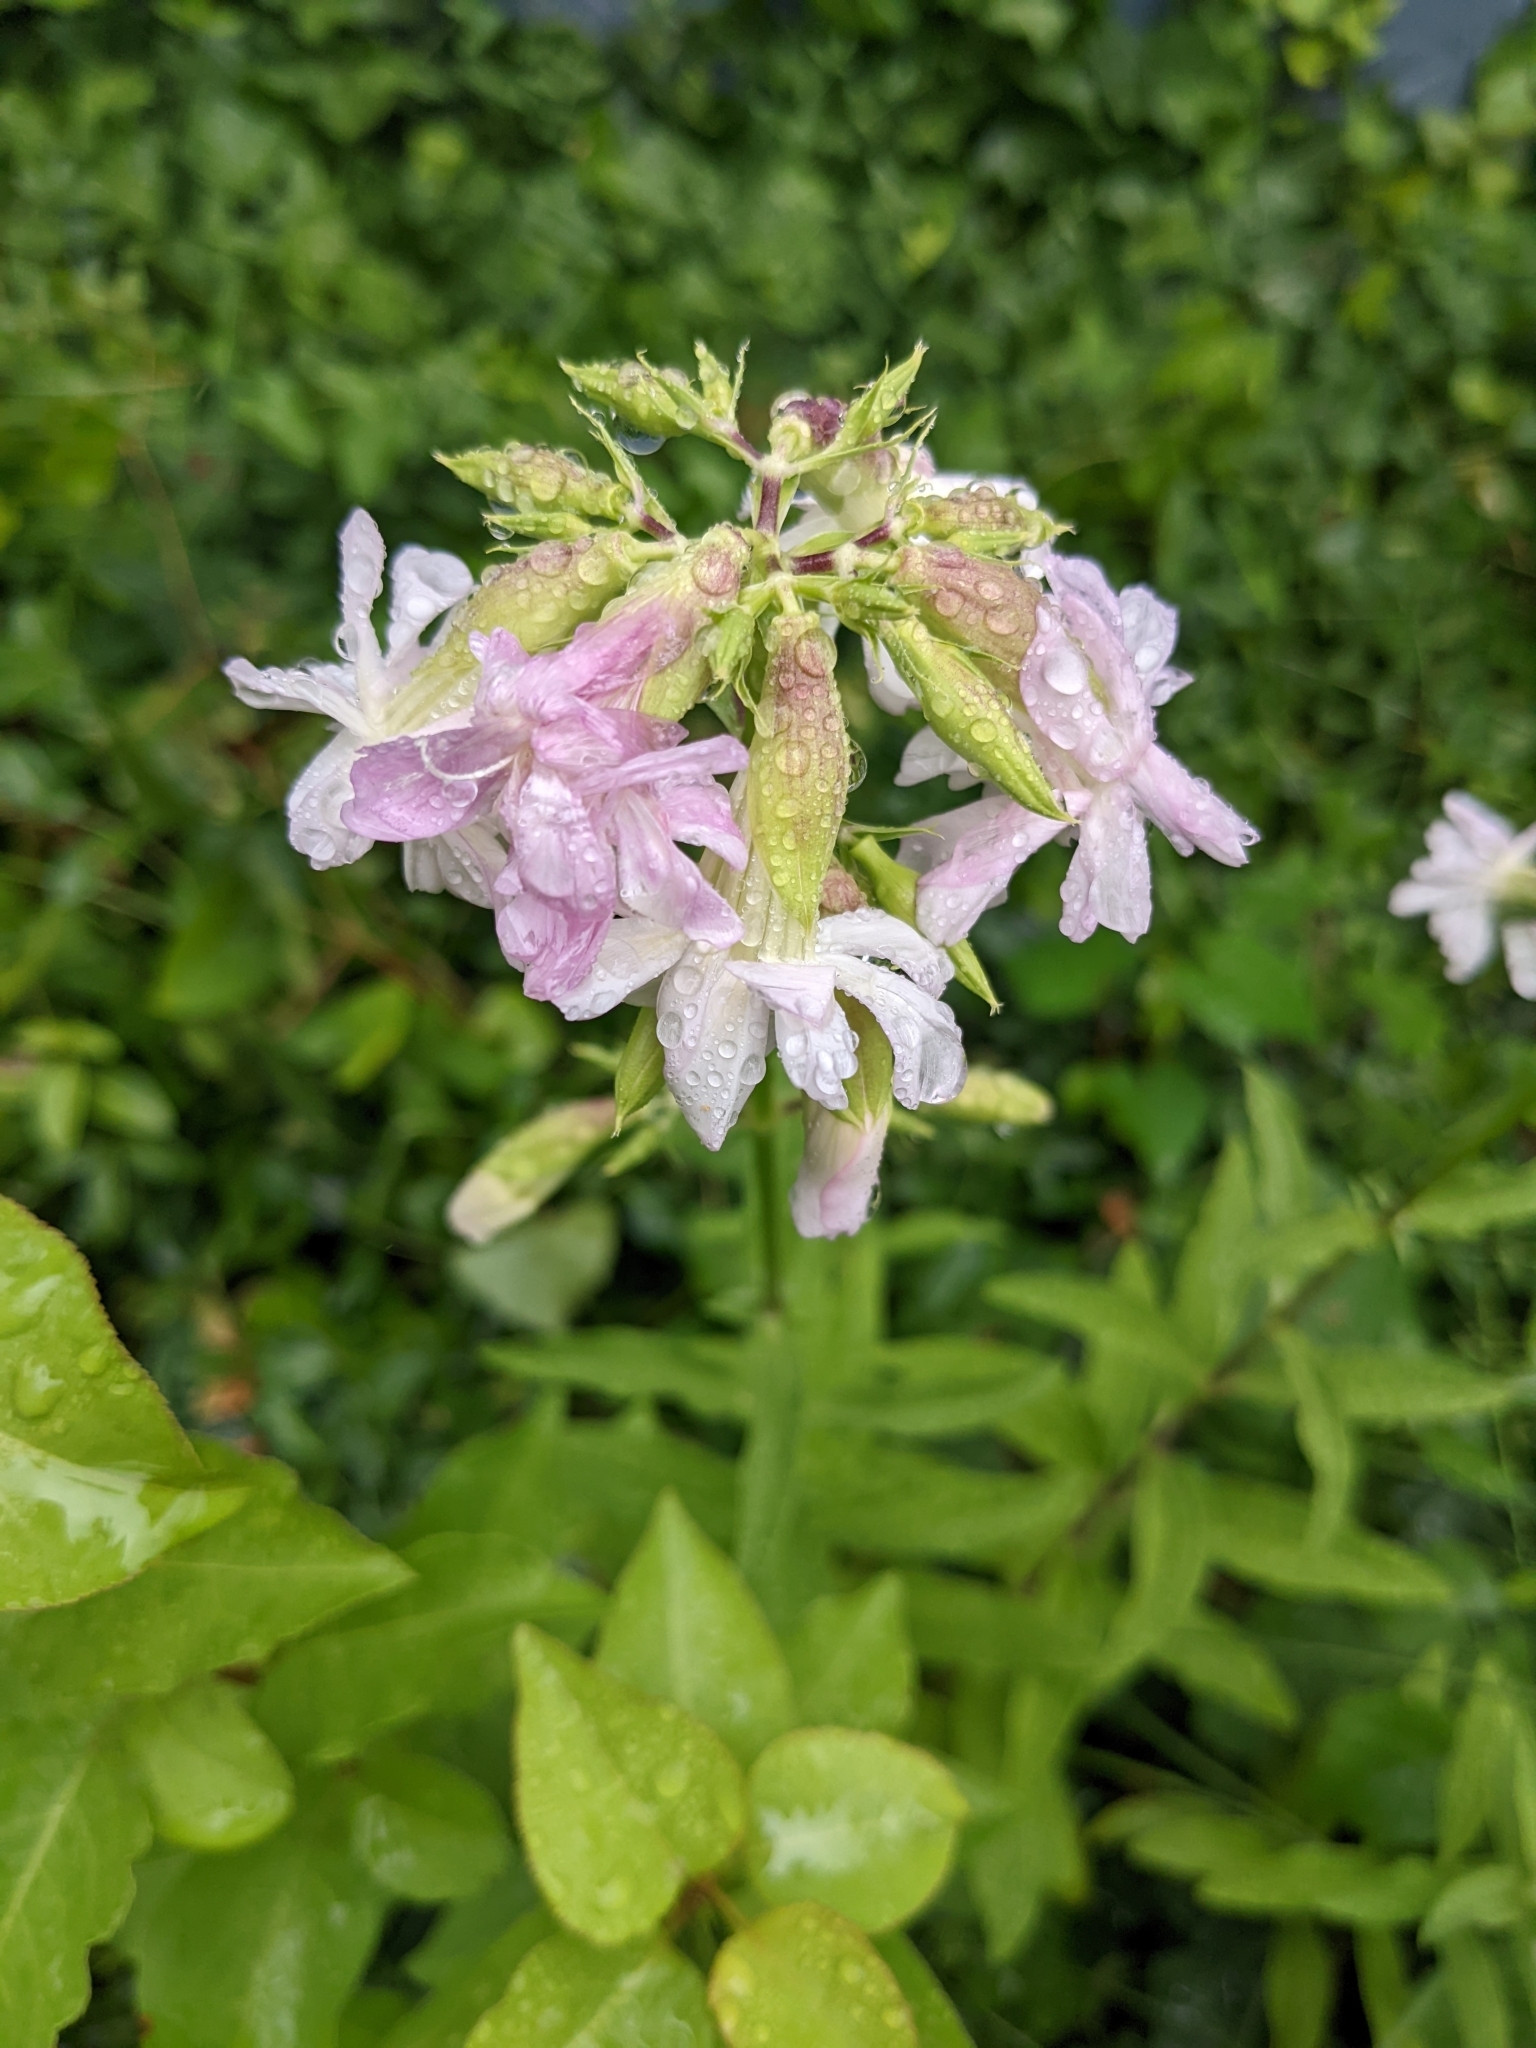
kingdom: Plantae
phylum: Tracheophyta
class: Magnoliopsida
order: Caryophyllales
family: Caryophyllaceae
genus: Saponaria
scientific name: Saponaria officinalis
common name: Soapwort
